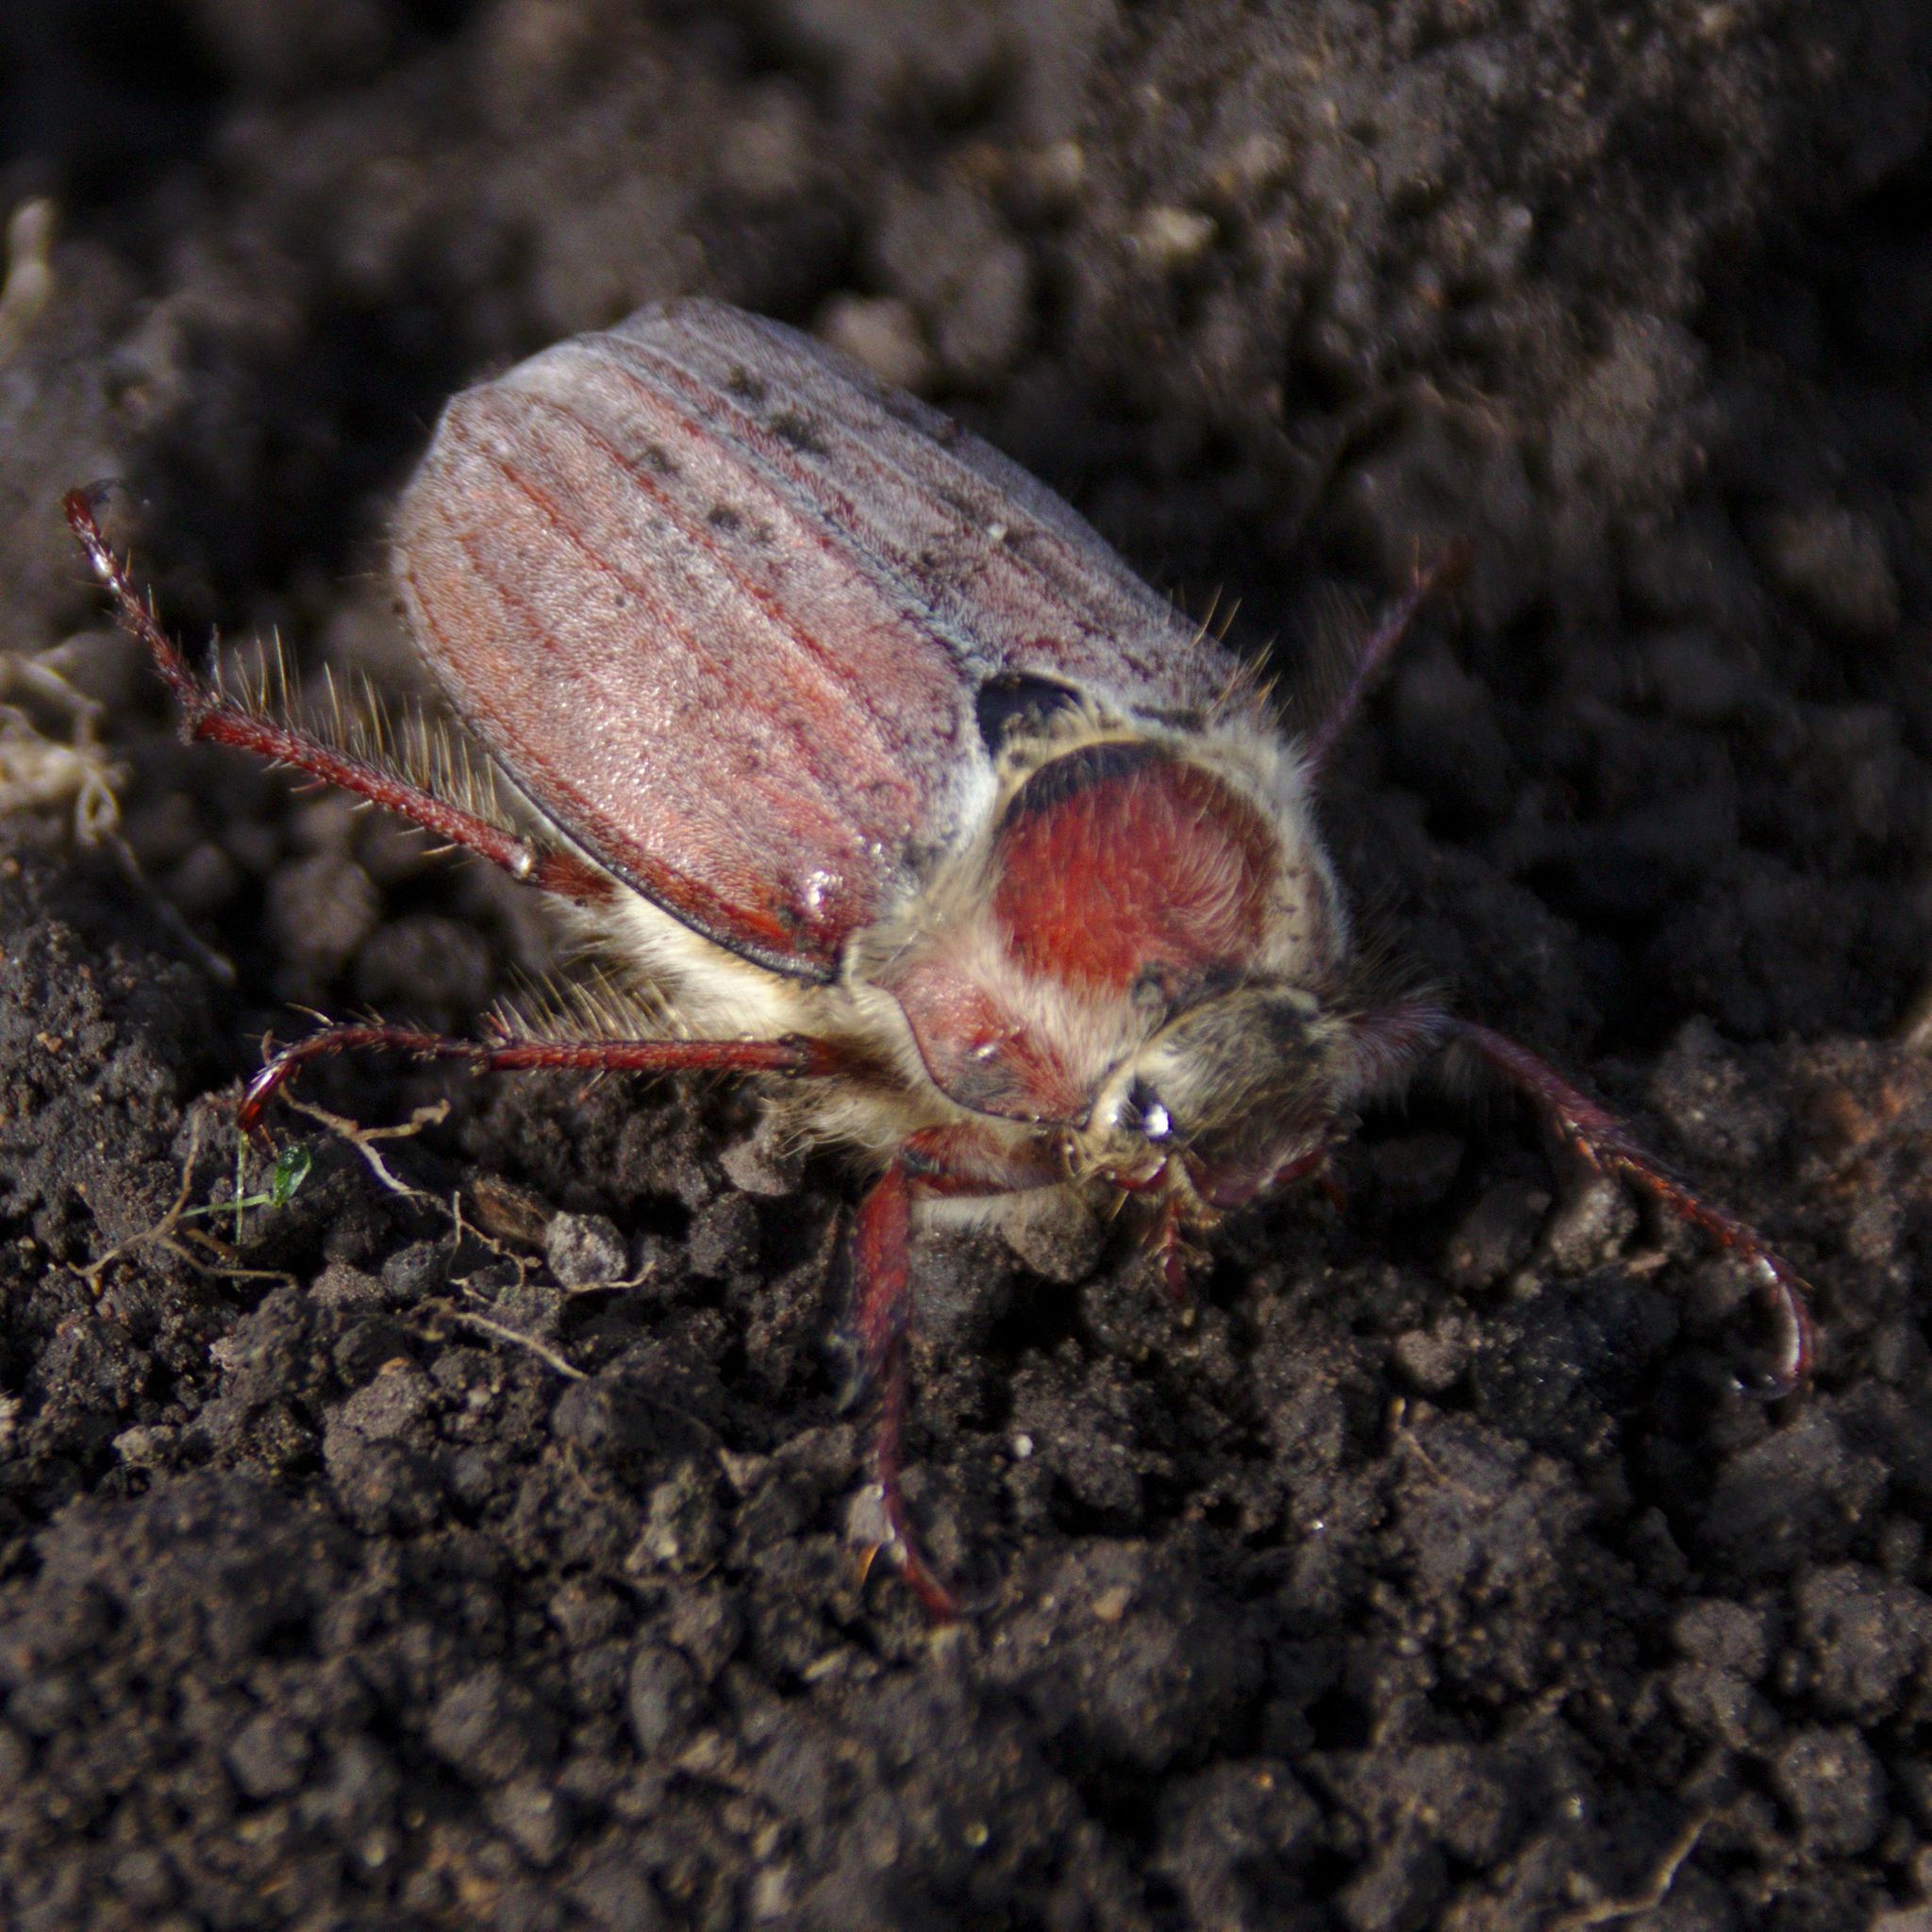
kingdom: Animalia
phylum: Arthropoda
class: Insecta
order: Coleoptera
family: Scarabaeidae
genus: Melolontha
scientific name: Melolontha hippocastani
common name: Chestnut cockchafer
